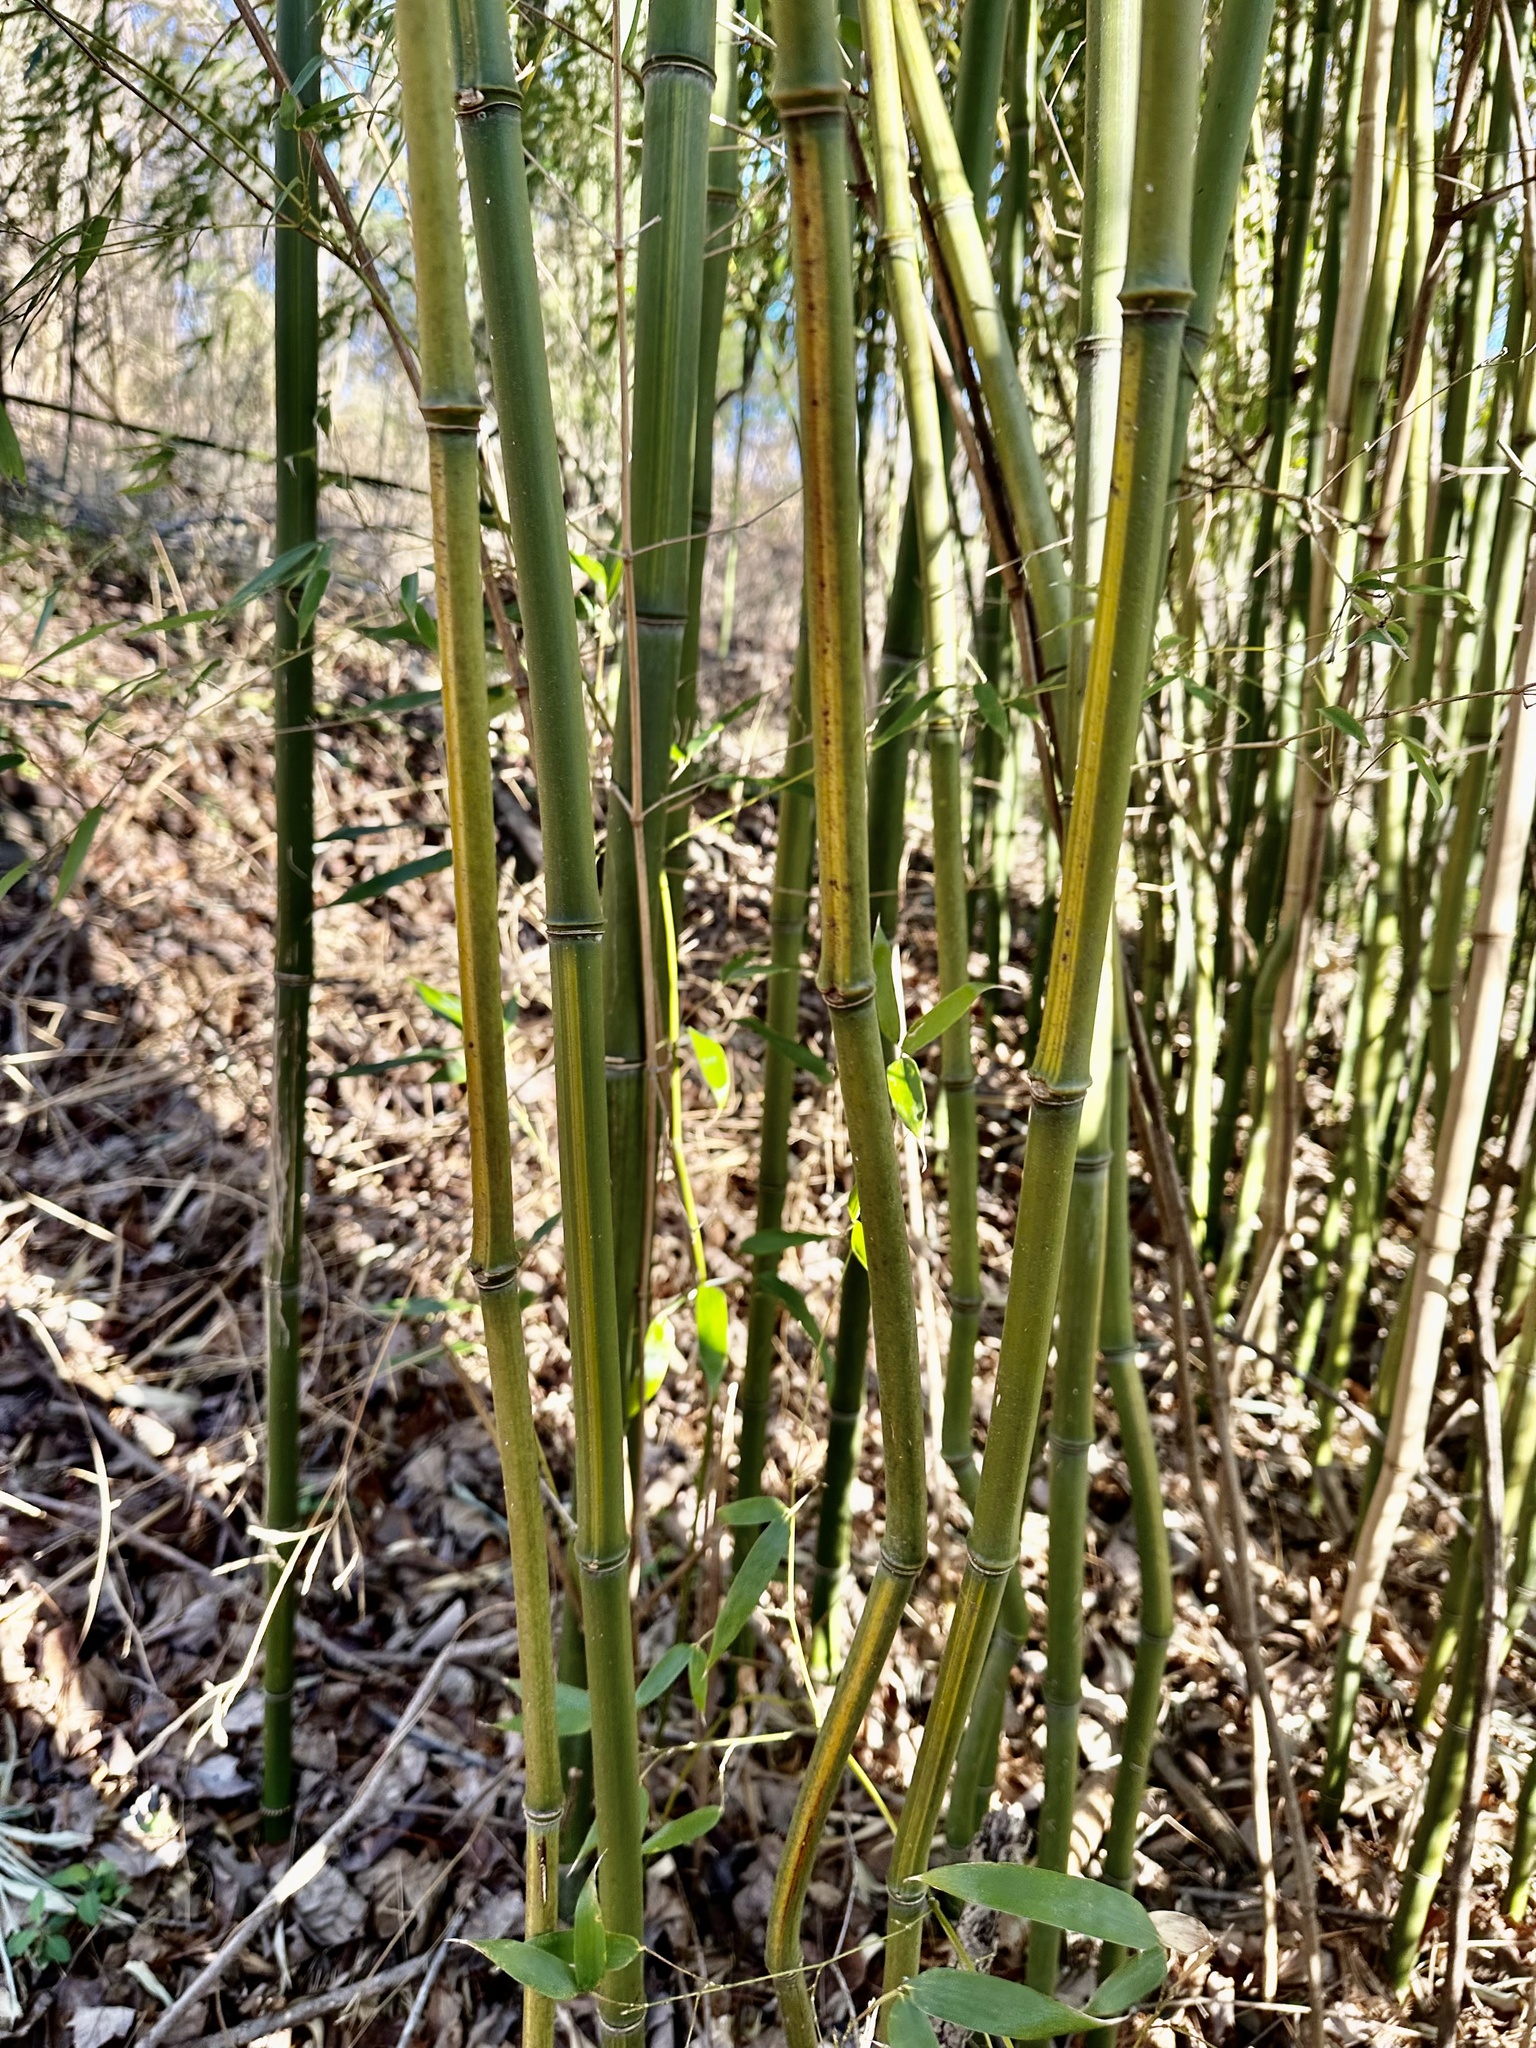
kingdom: Plantae
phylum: Tracheophyta
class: Liliopsida
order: Poales
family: Poaceae
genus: Phyllostachys
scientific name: Phyllostachys aureosulcata
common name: Yellow groove bamboo
